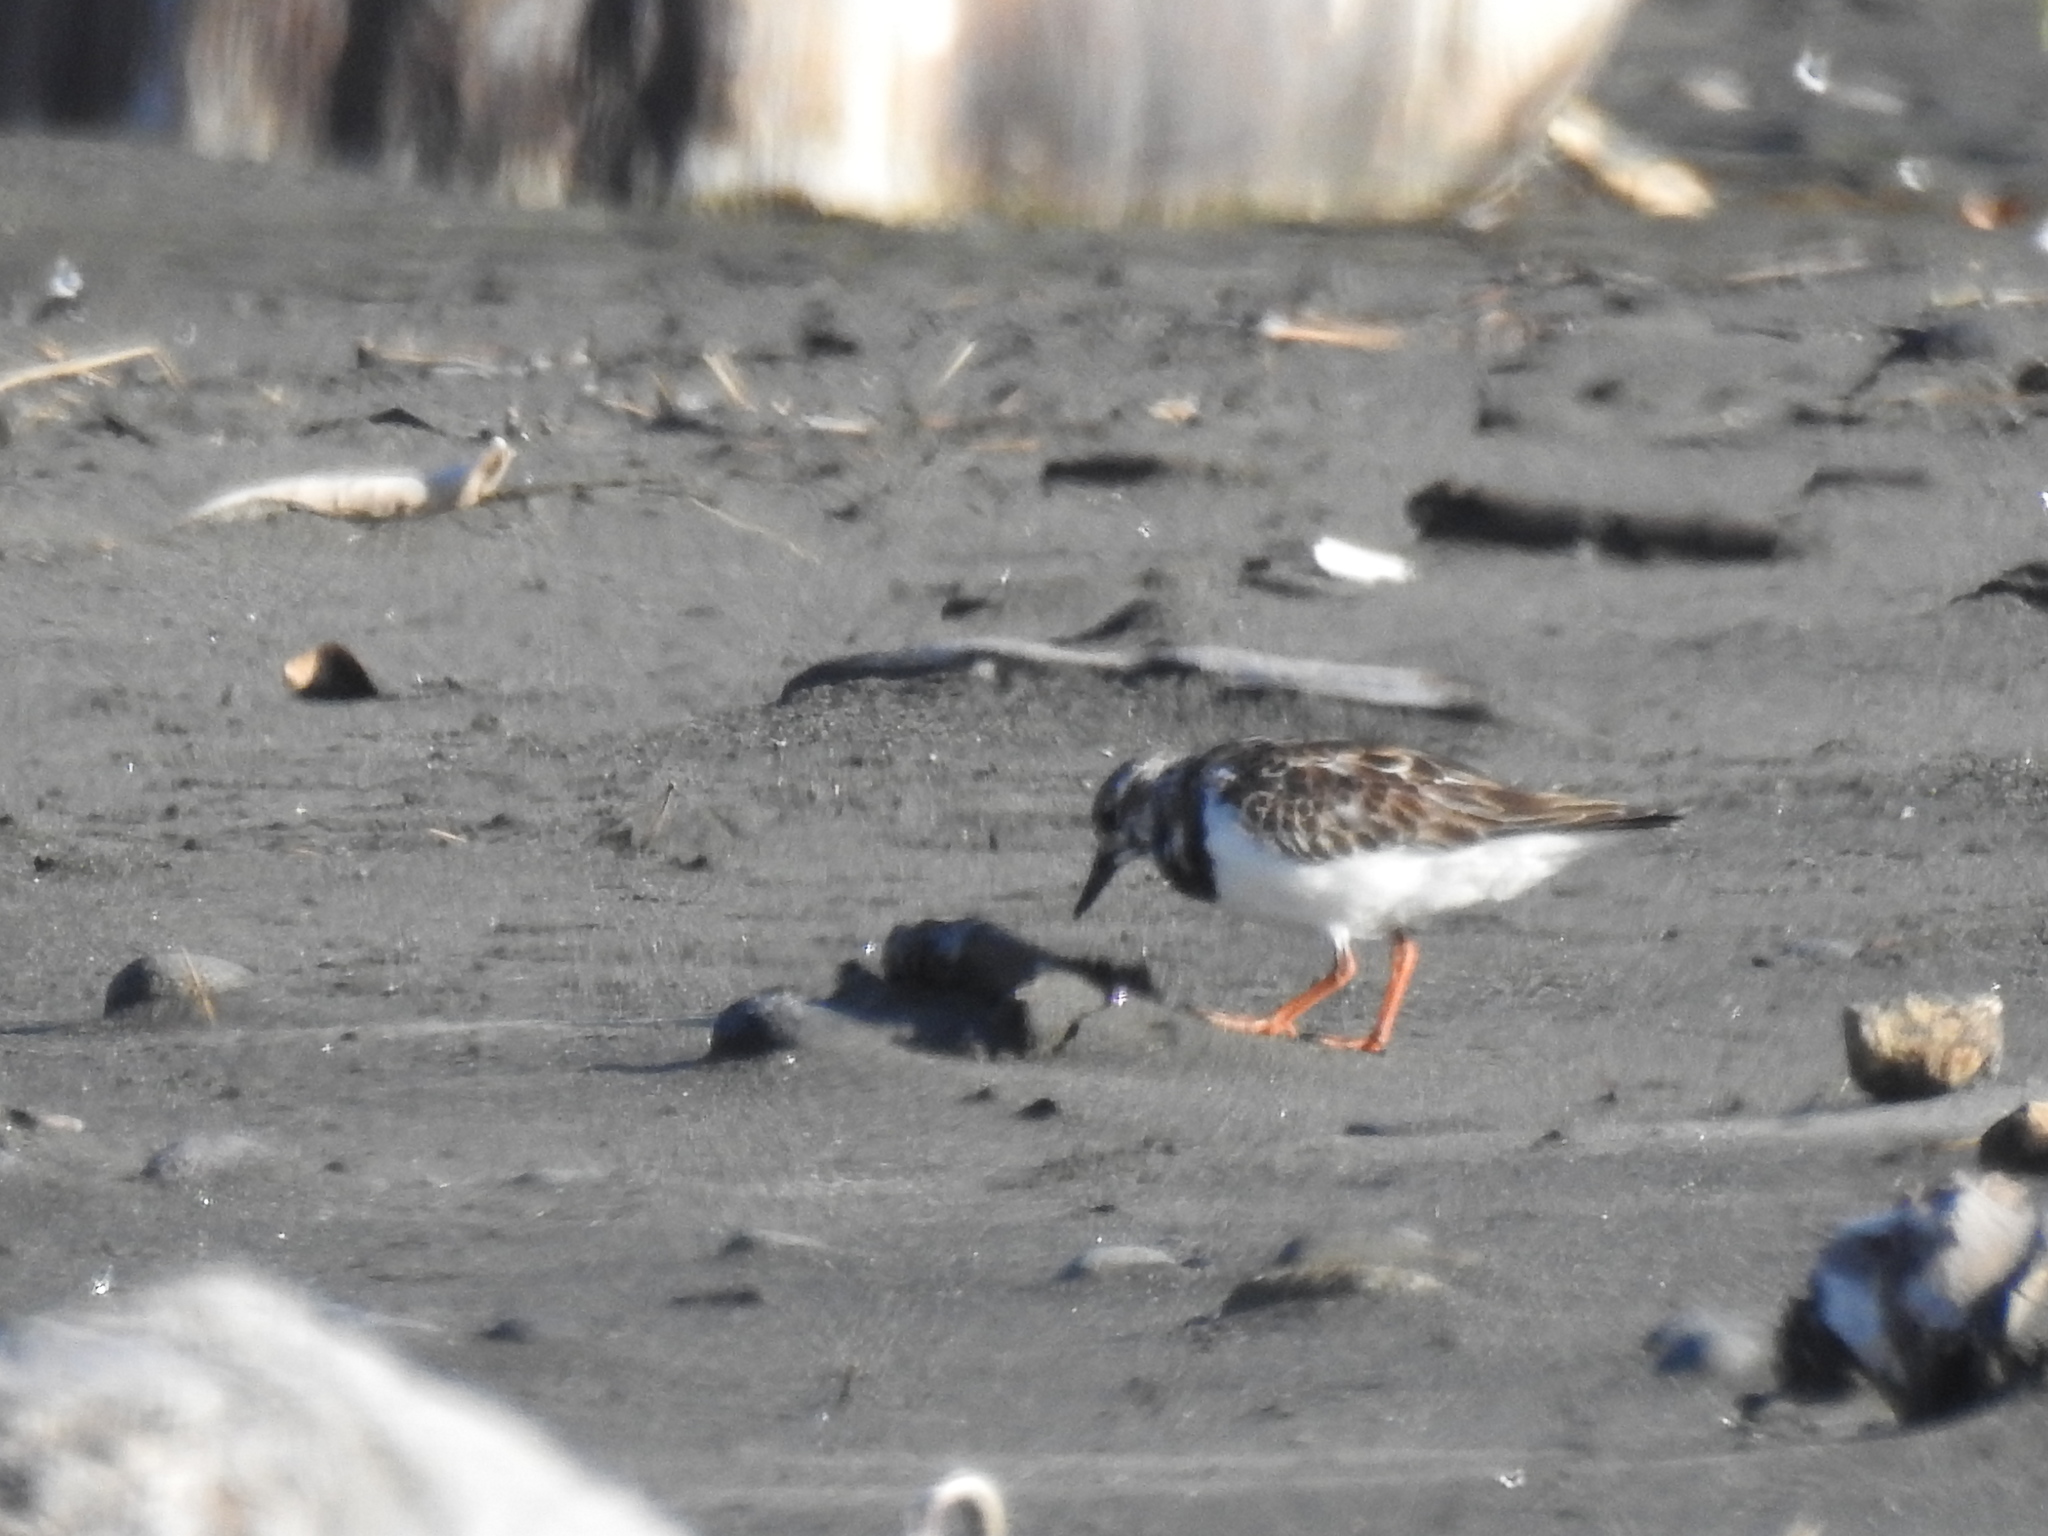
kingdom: Animalia
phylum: Chordata
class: Aves
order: Charadriiformes
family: Scolopacidae
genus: Arenaria
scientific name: Arenaria interpres
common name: Ruddy turnstone
